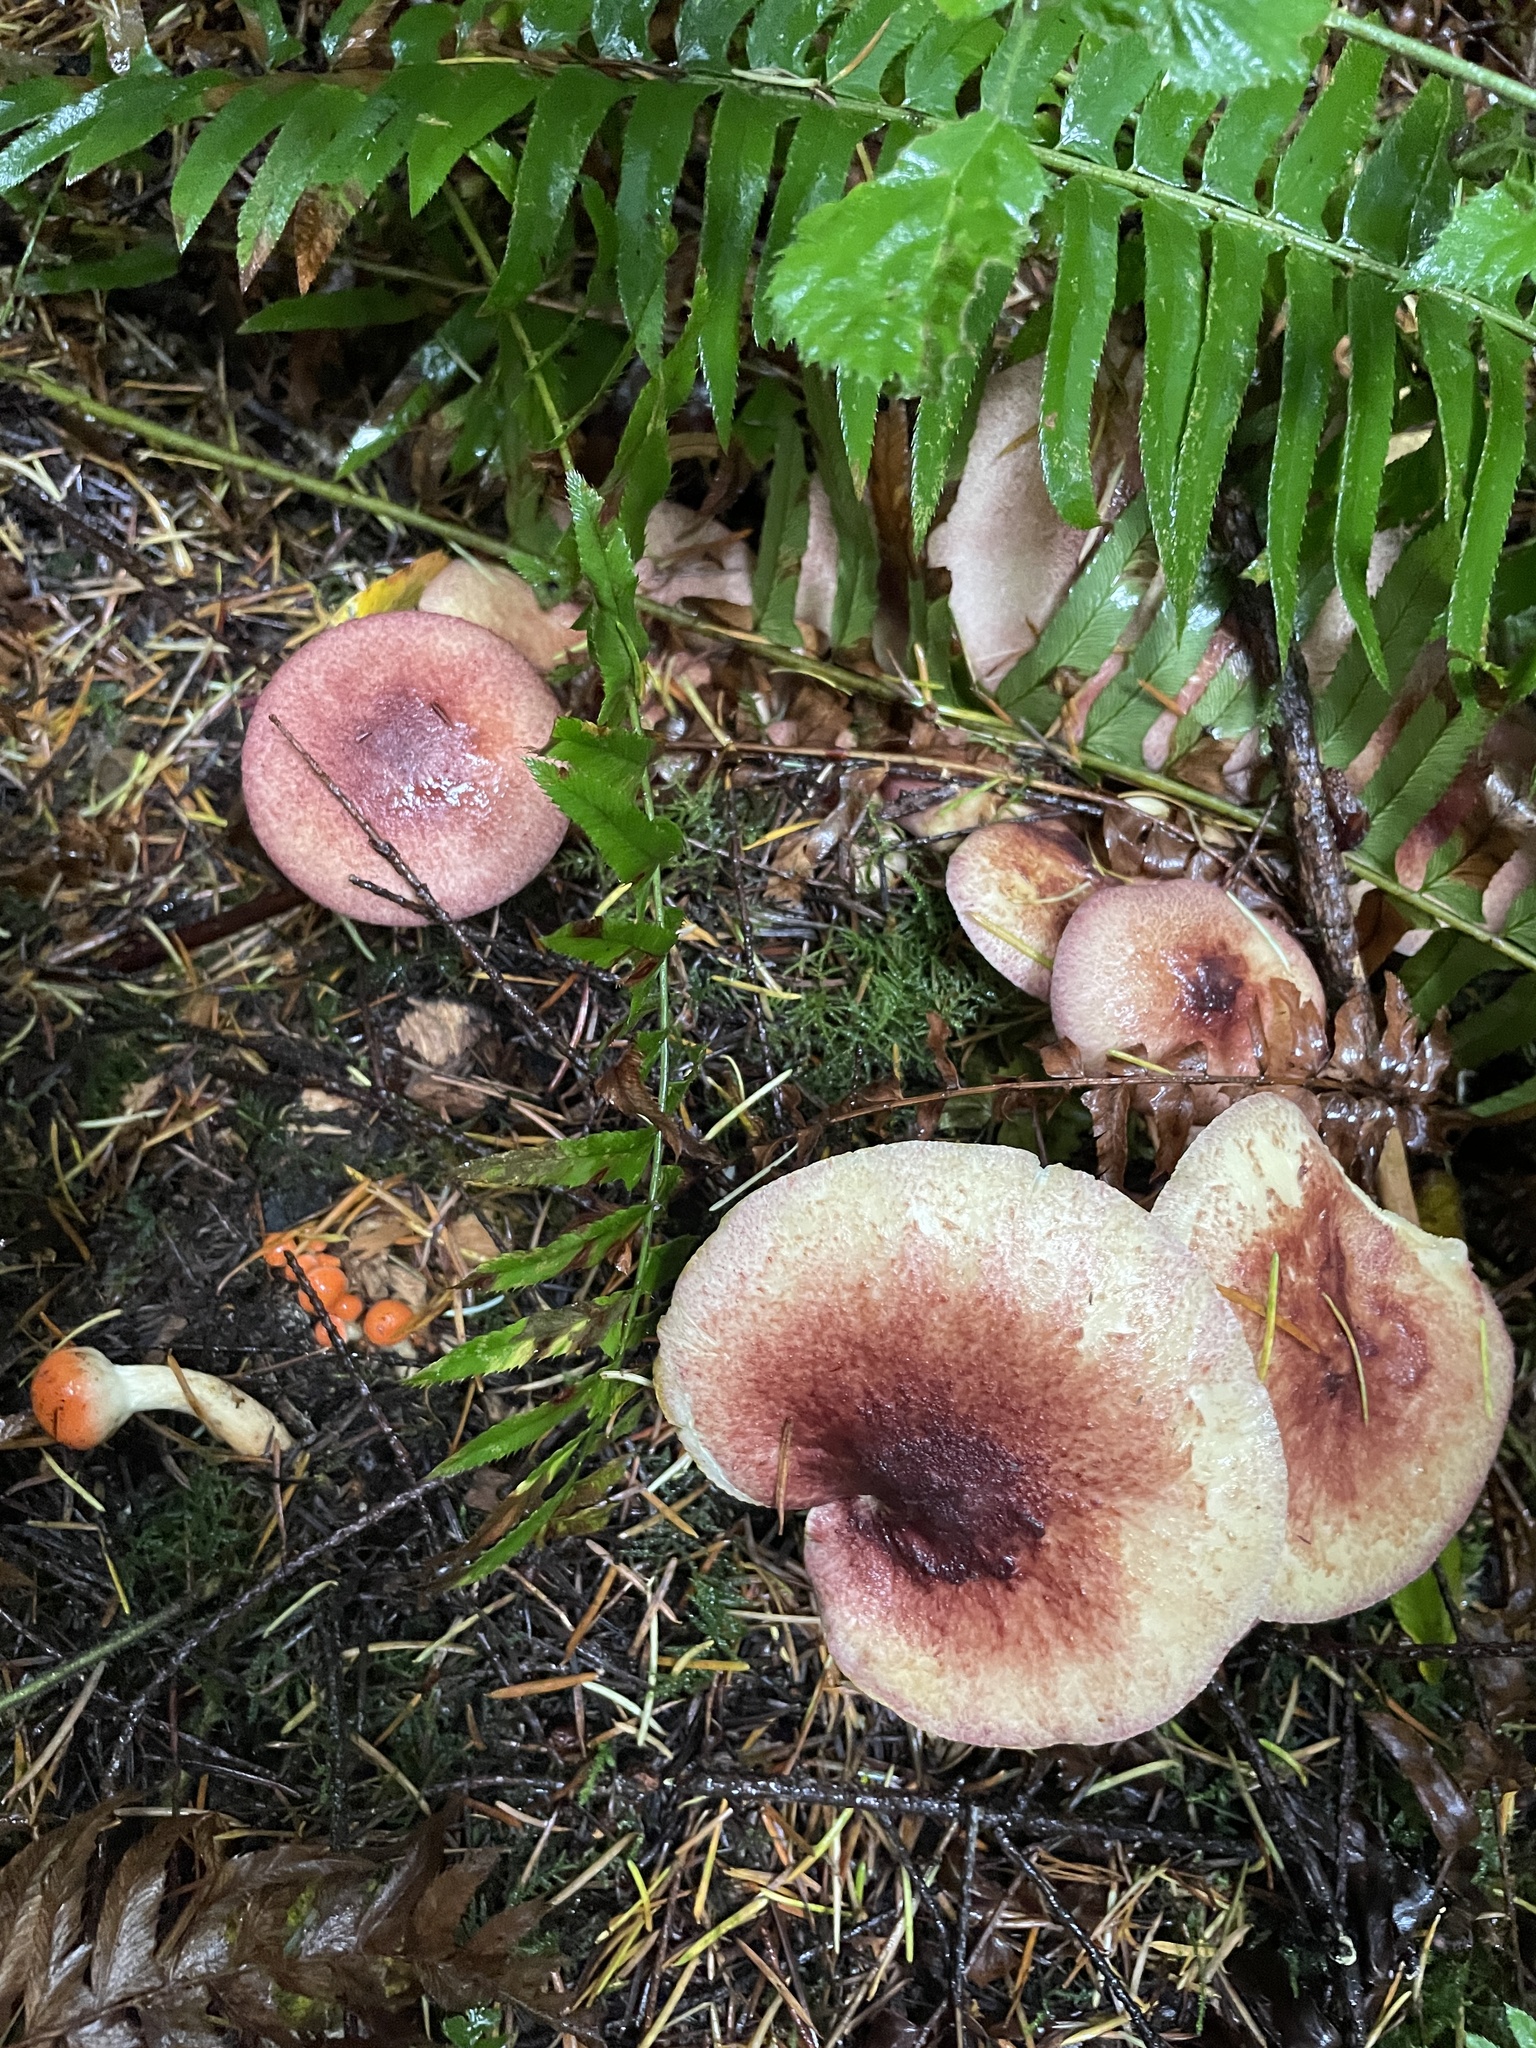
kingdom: Fungi
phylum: Basidiomycota
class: Agaricomycetes
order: Agaricales
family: Tricholomataceae
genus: Tricholomopsis
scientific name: Tricholomopsis rutilans
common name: Plums and custard
